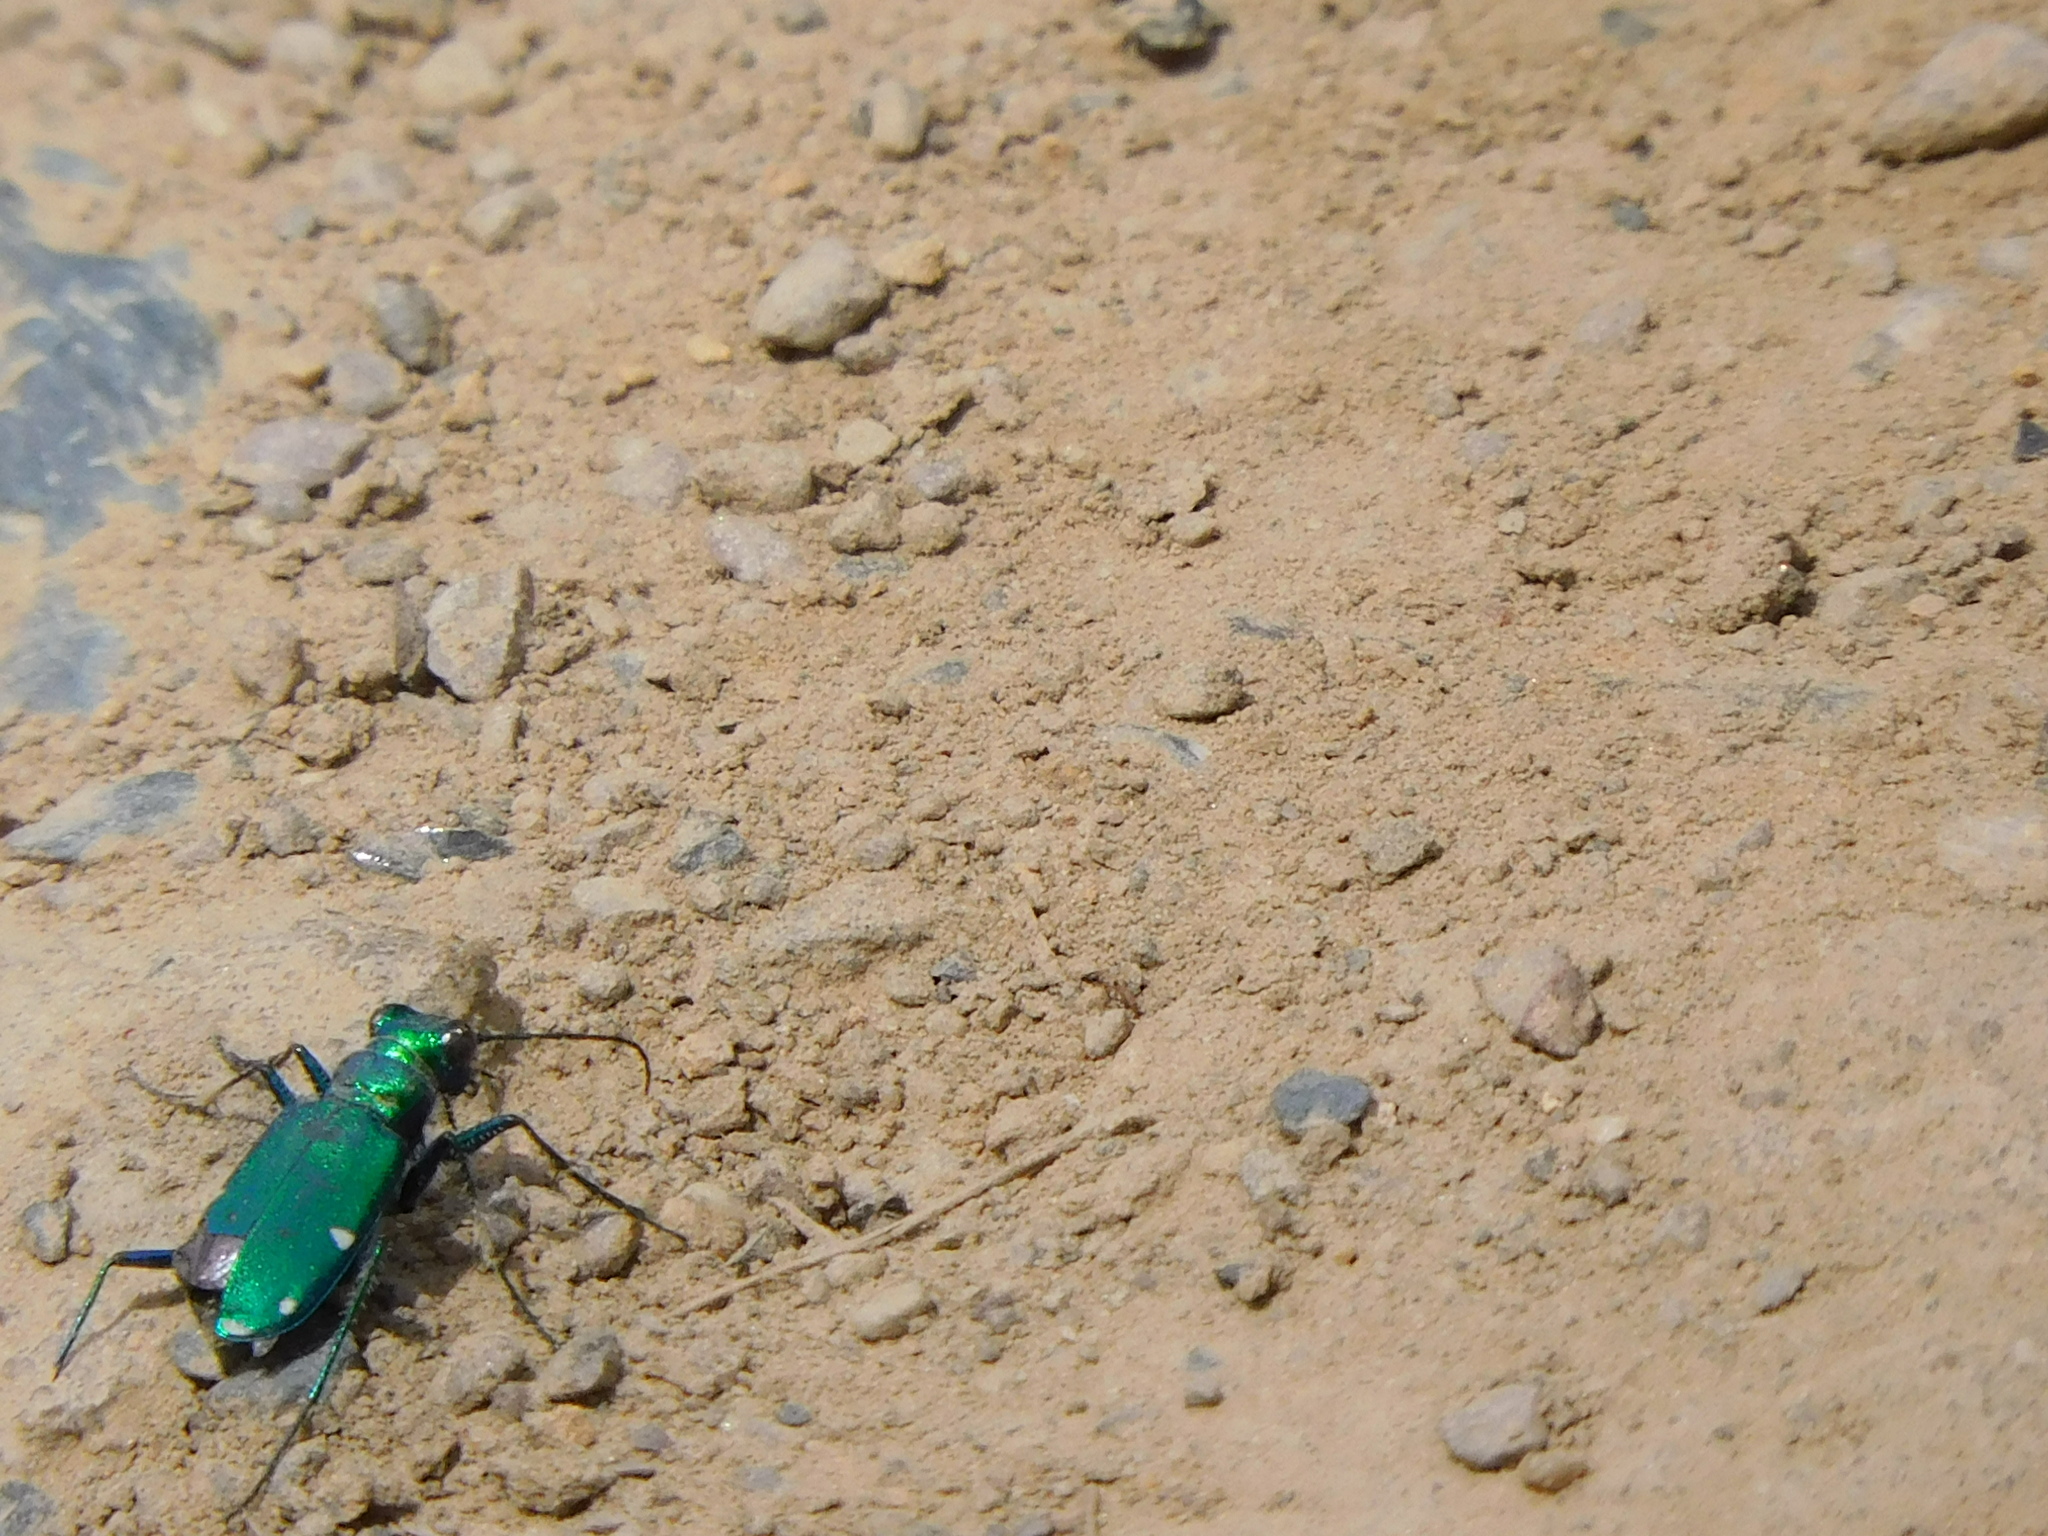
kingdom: Animalia
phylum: Arthropoda
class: Insecta
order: Coleoptera
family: Carabidae
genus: Cicindela
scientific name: Cicindela sexguttata
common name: Six-spotted tiger beetle
